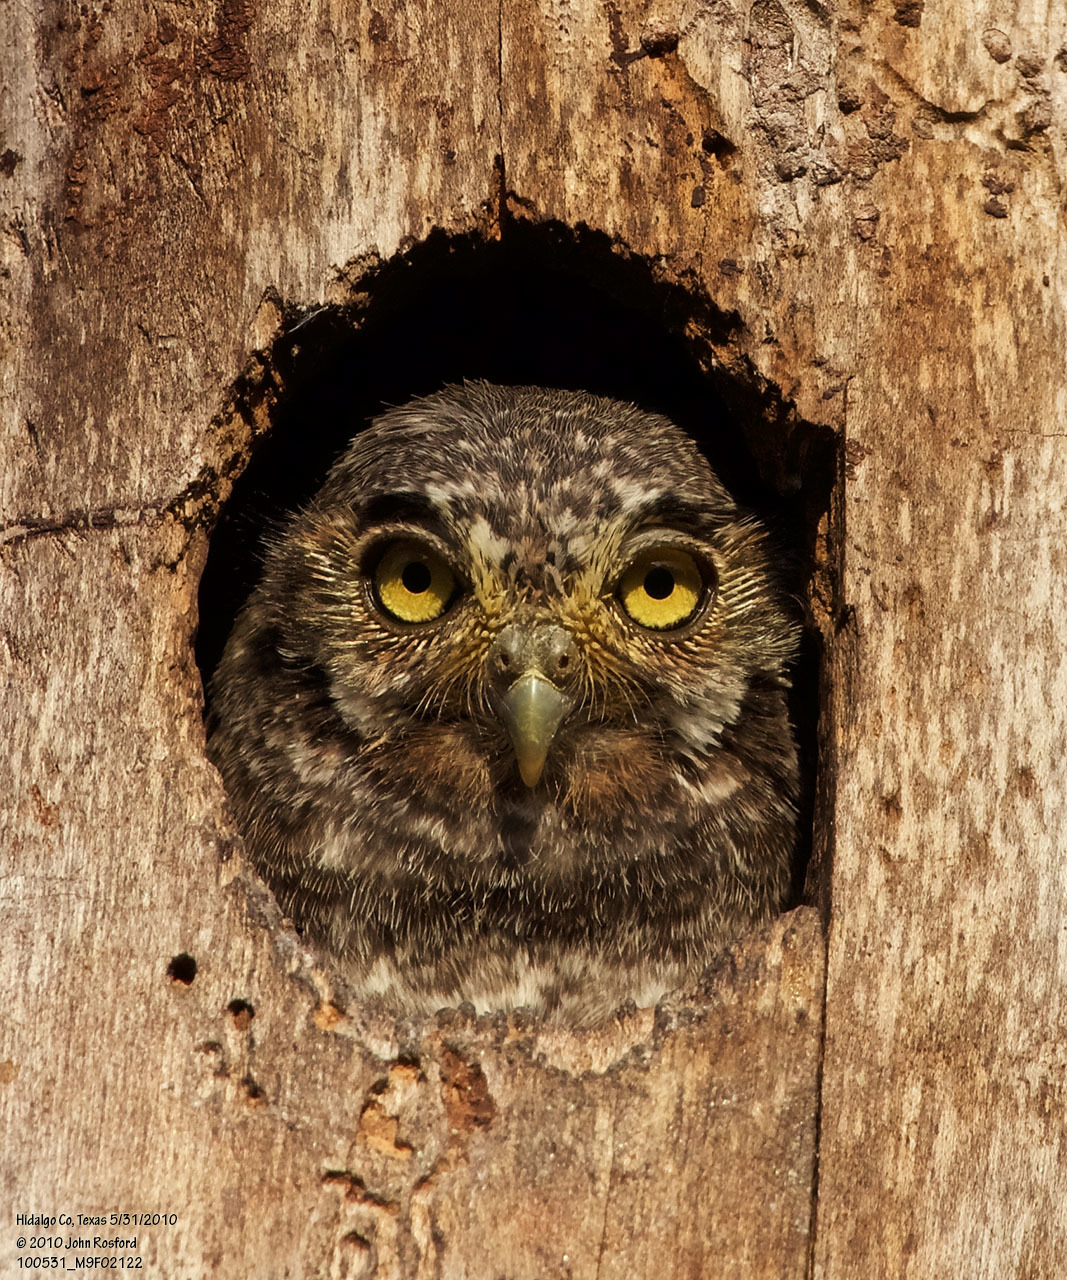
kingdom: Animalia
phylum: Chordata
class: Aves
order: Strigiformes
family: Strigidae
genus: Micrathene
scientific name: Micrathene whitneyi
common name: Elf owl
